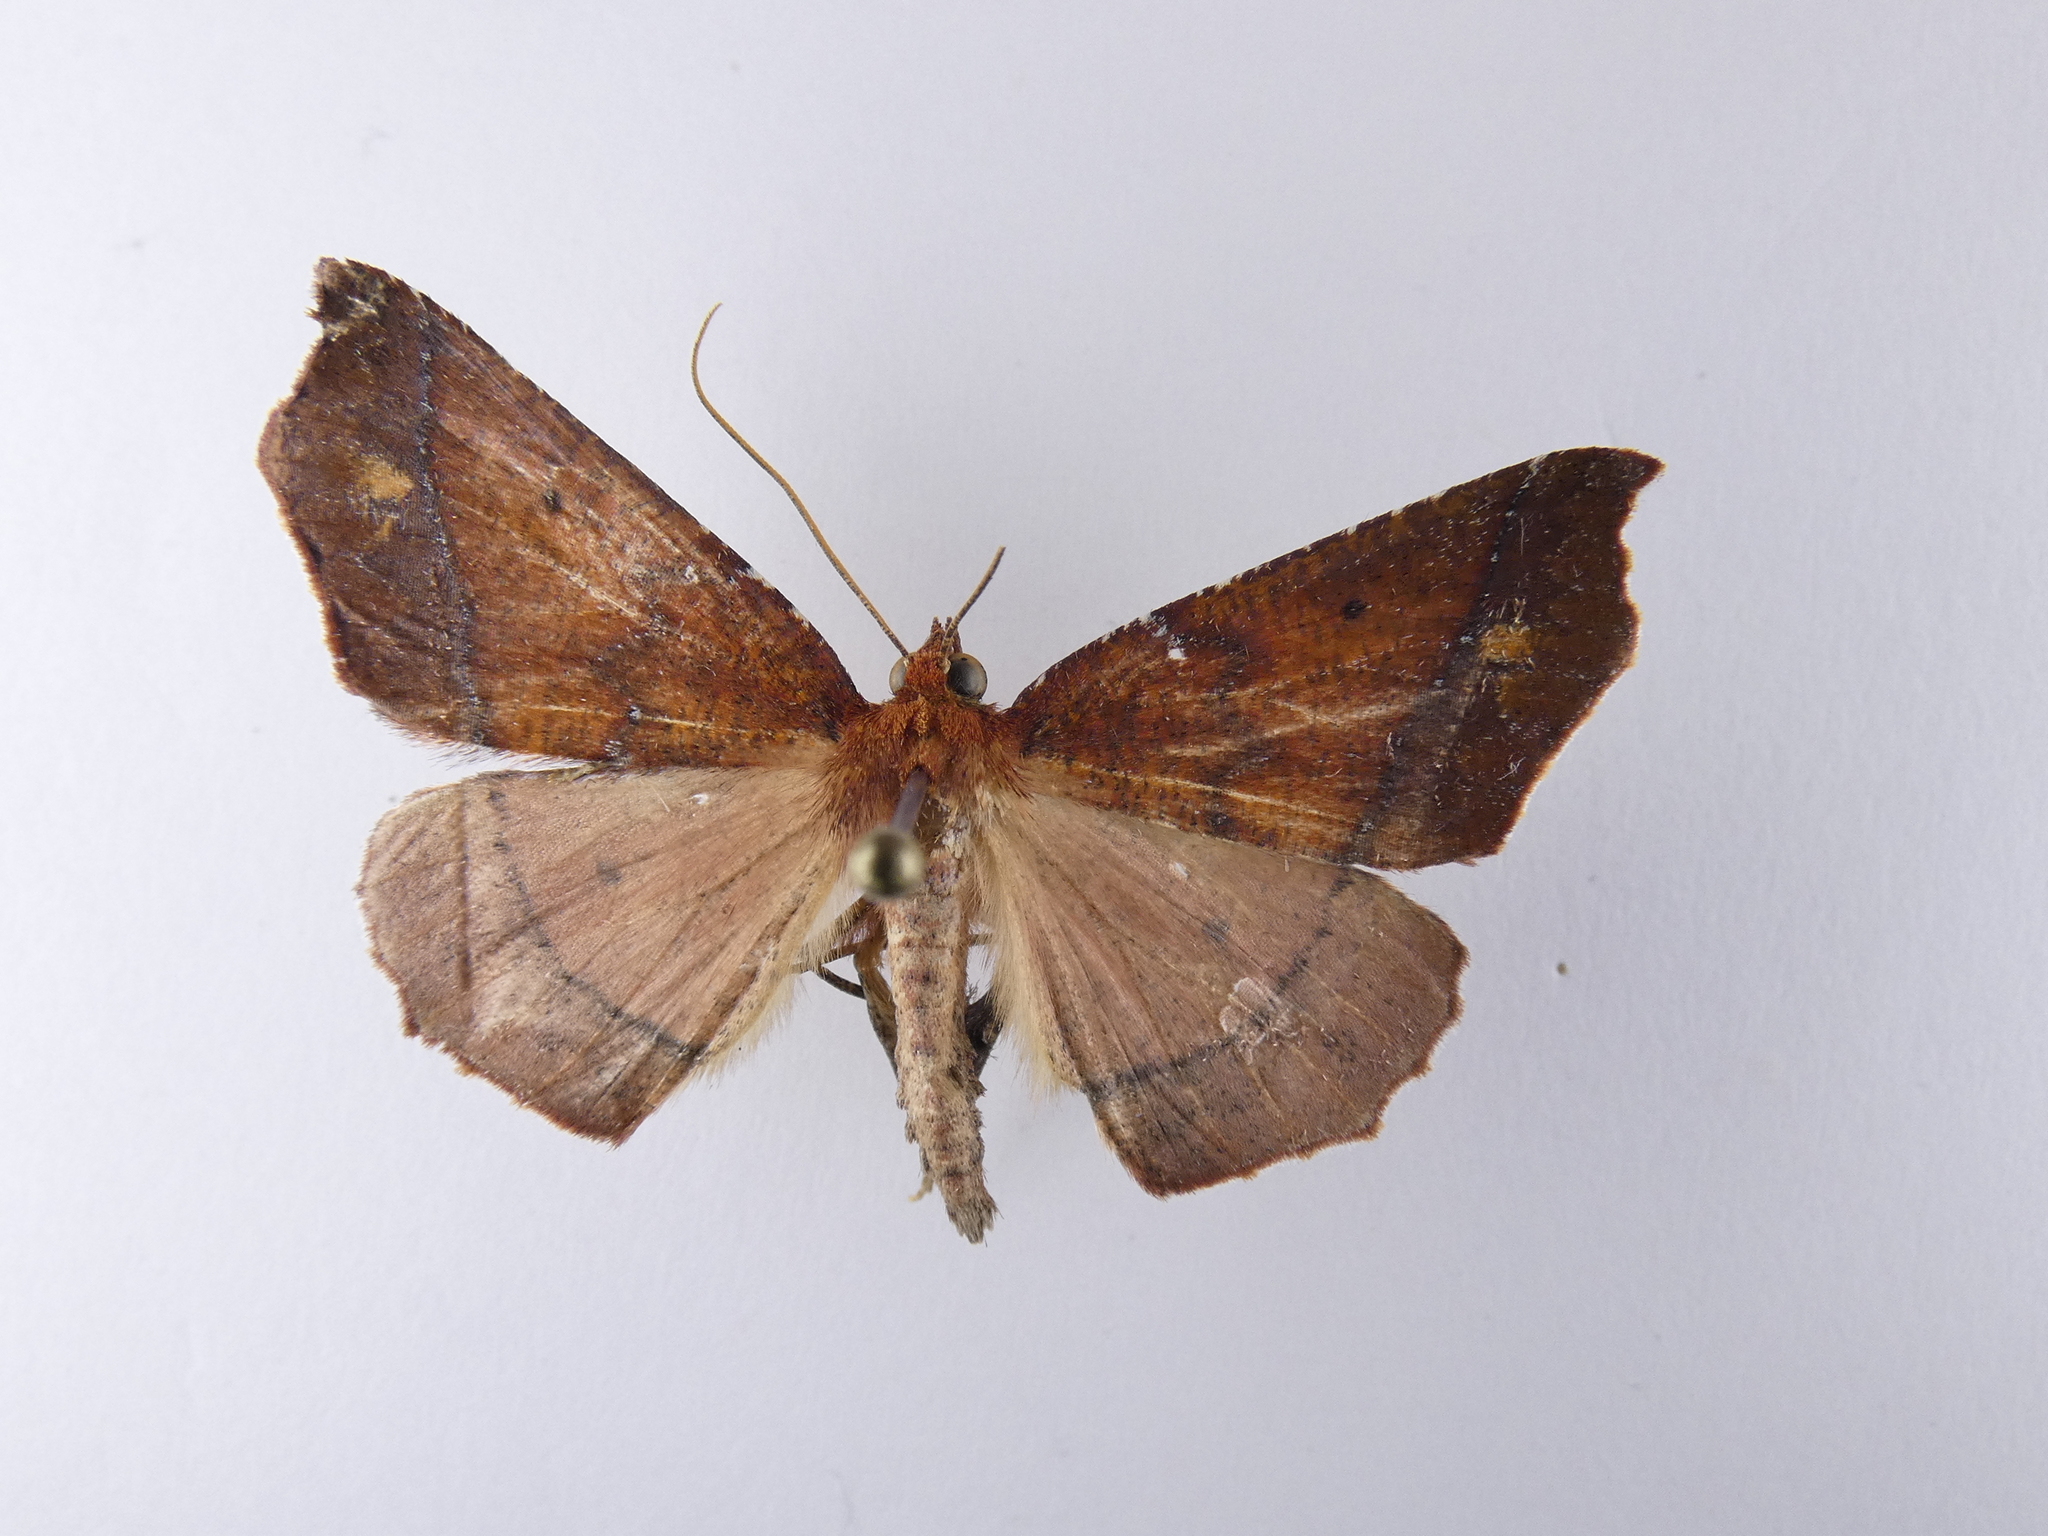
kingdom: Animalia
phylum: Arthropoda
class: Insecta
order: Lepidoptera
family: Geometridae
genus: Ischalis
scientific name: Ischalis nelsonaria
